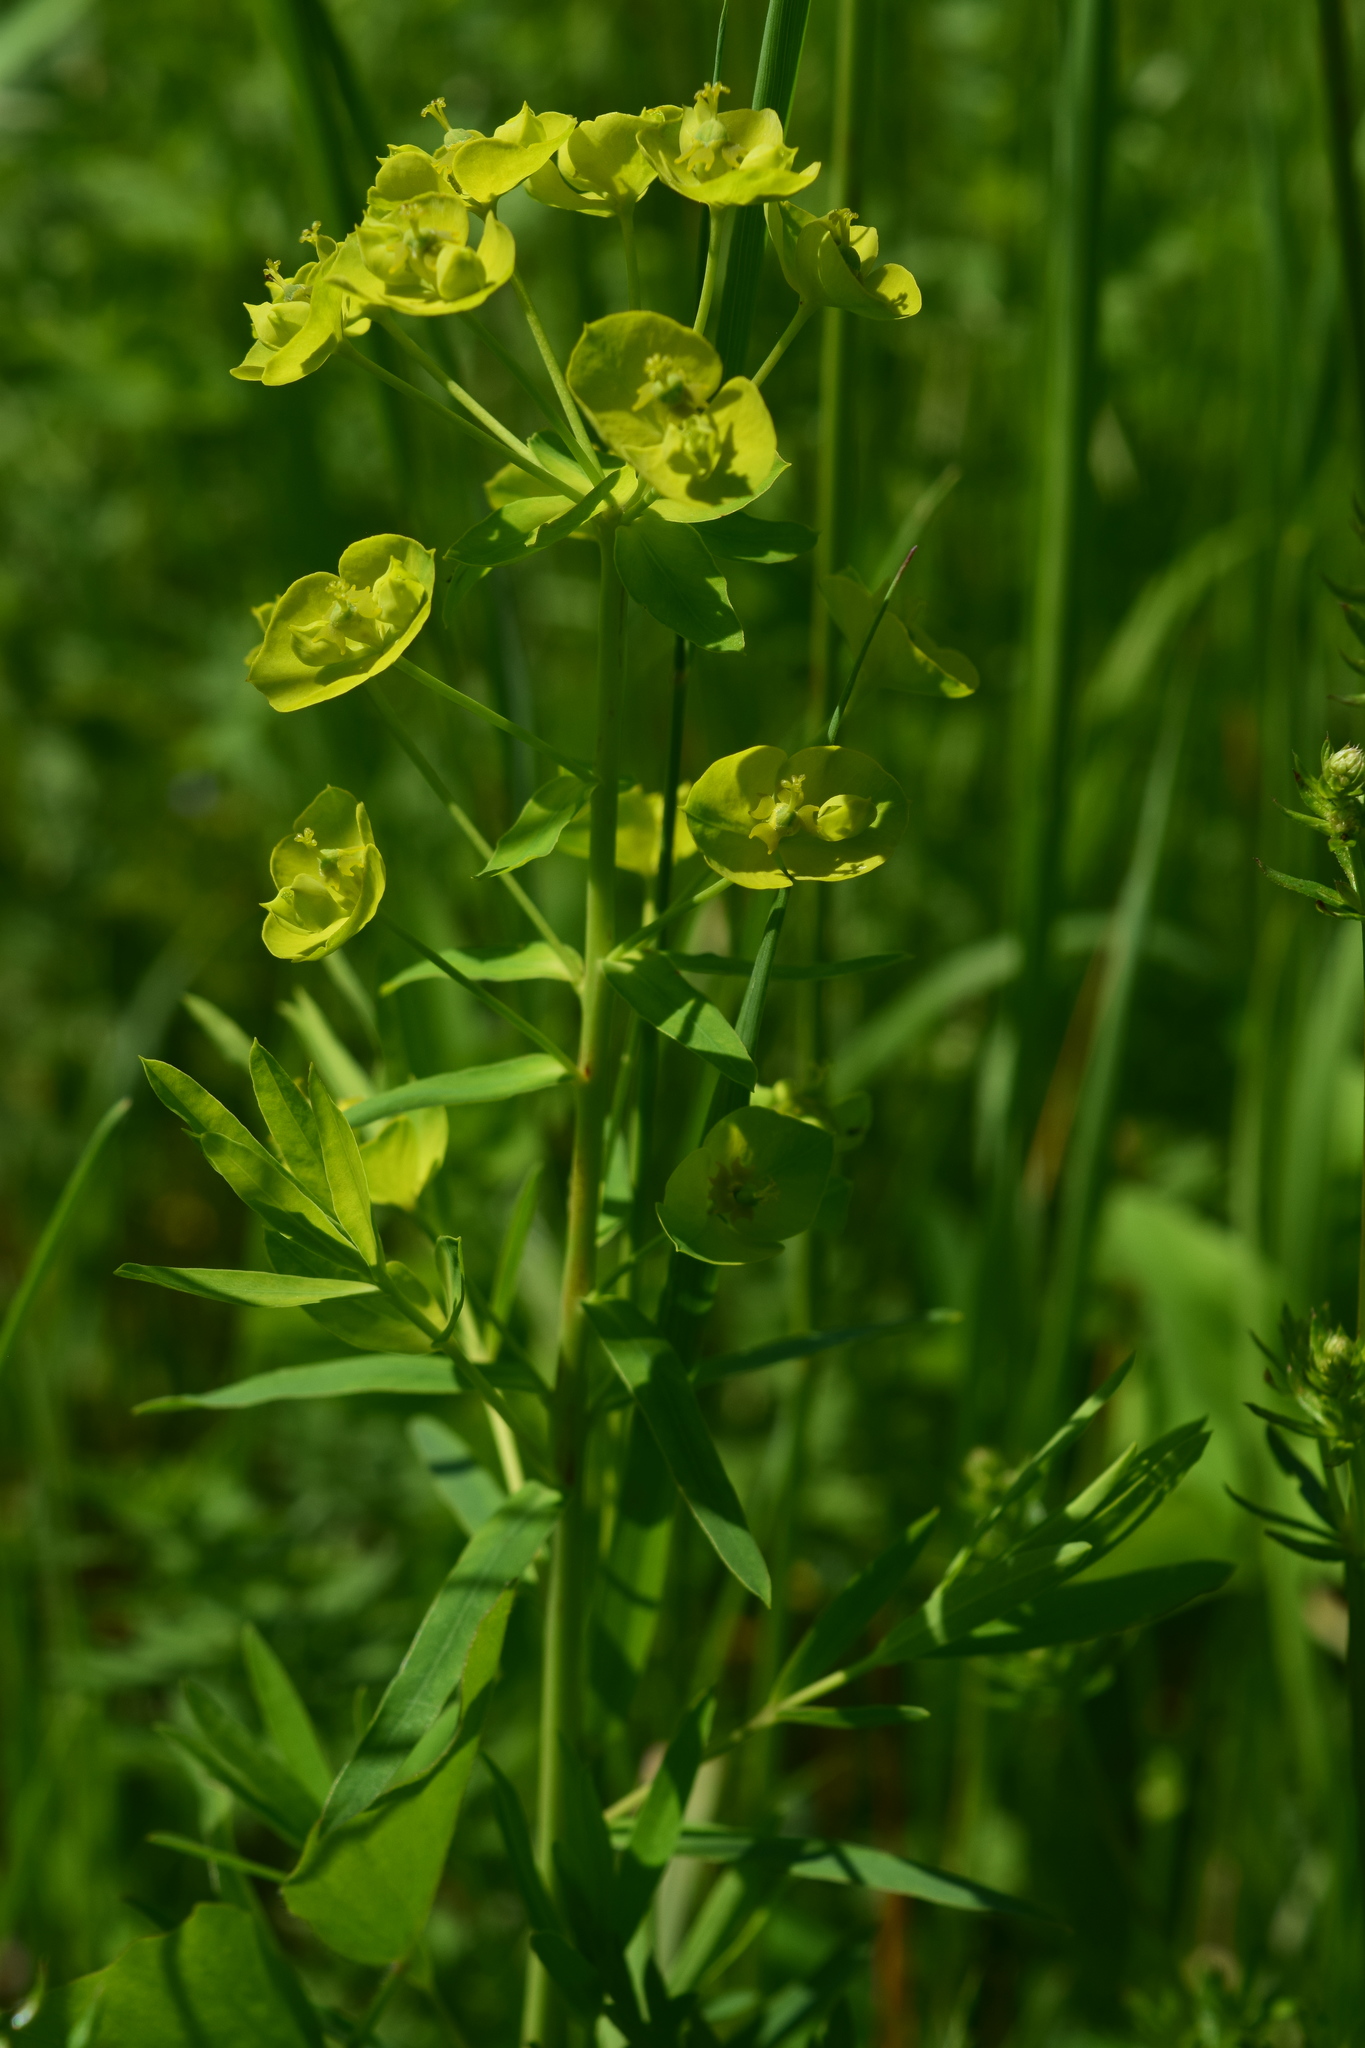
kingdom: Plantae
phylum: Tracheophyta
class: Magnoliopsida
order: Malpighiales
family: Euphorbiaceae
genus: Euphorbia
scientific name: Euphorbia virgata
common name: Leafy spurge
